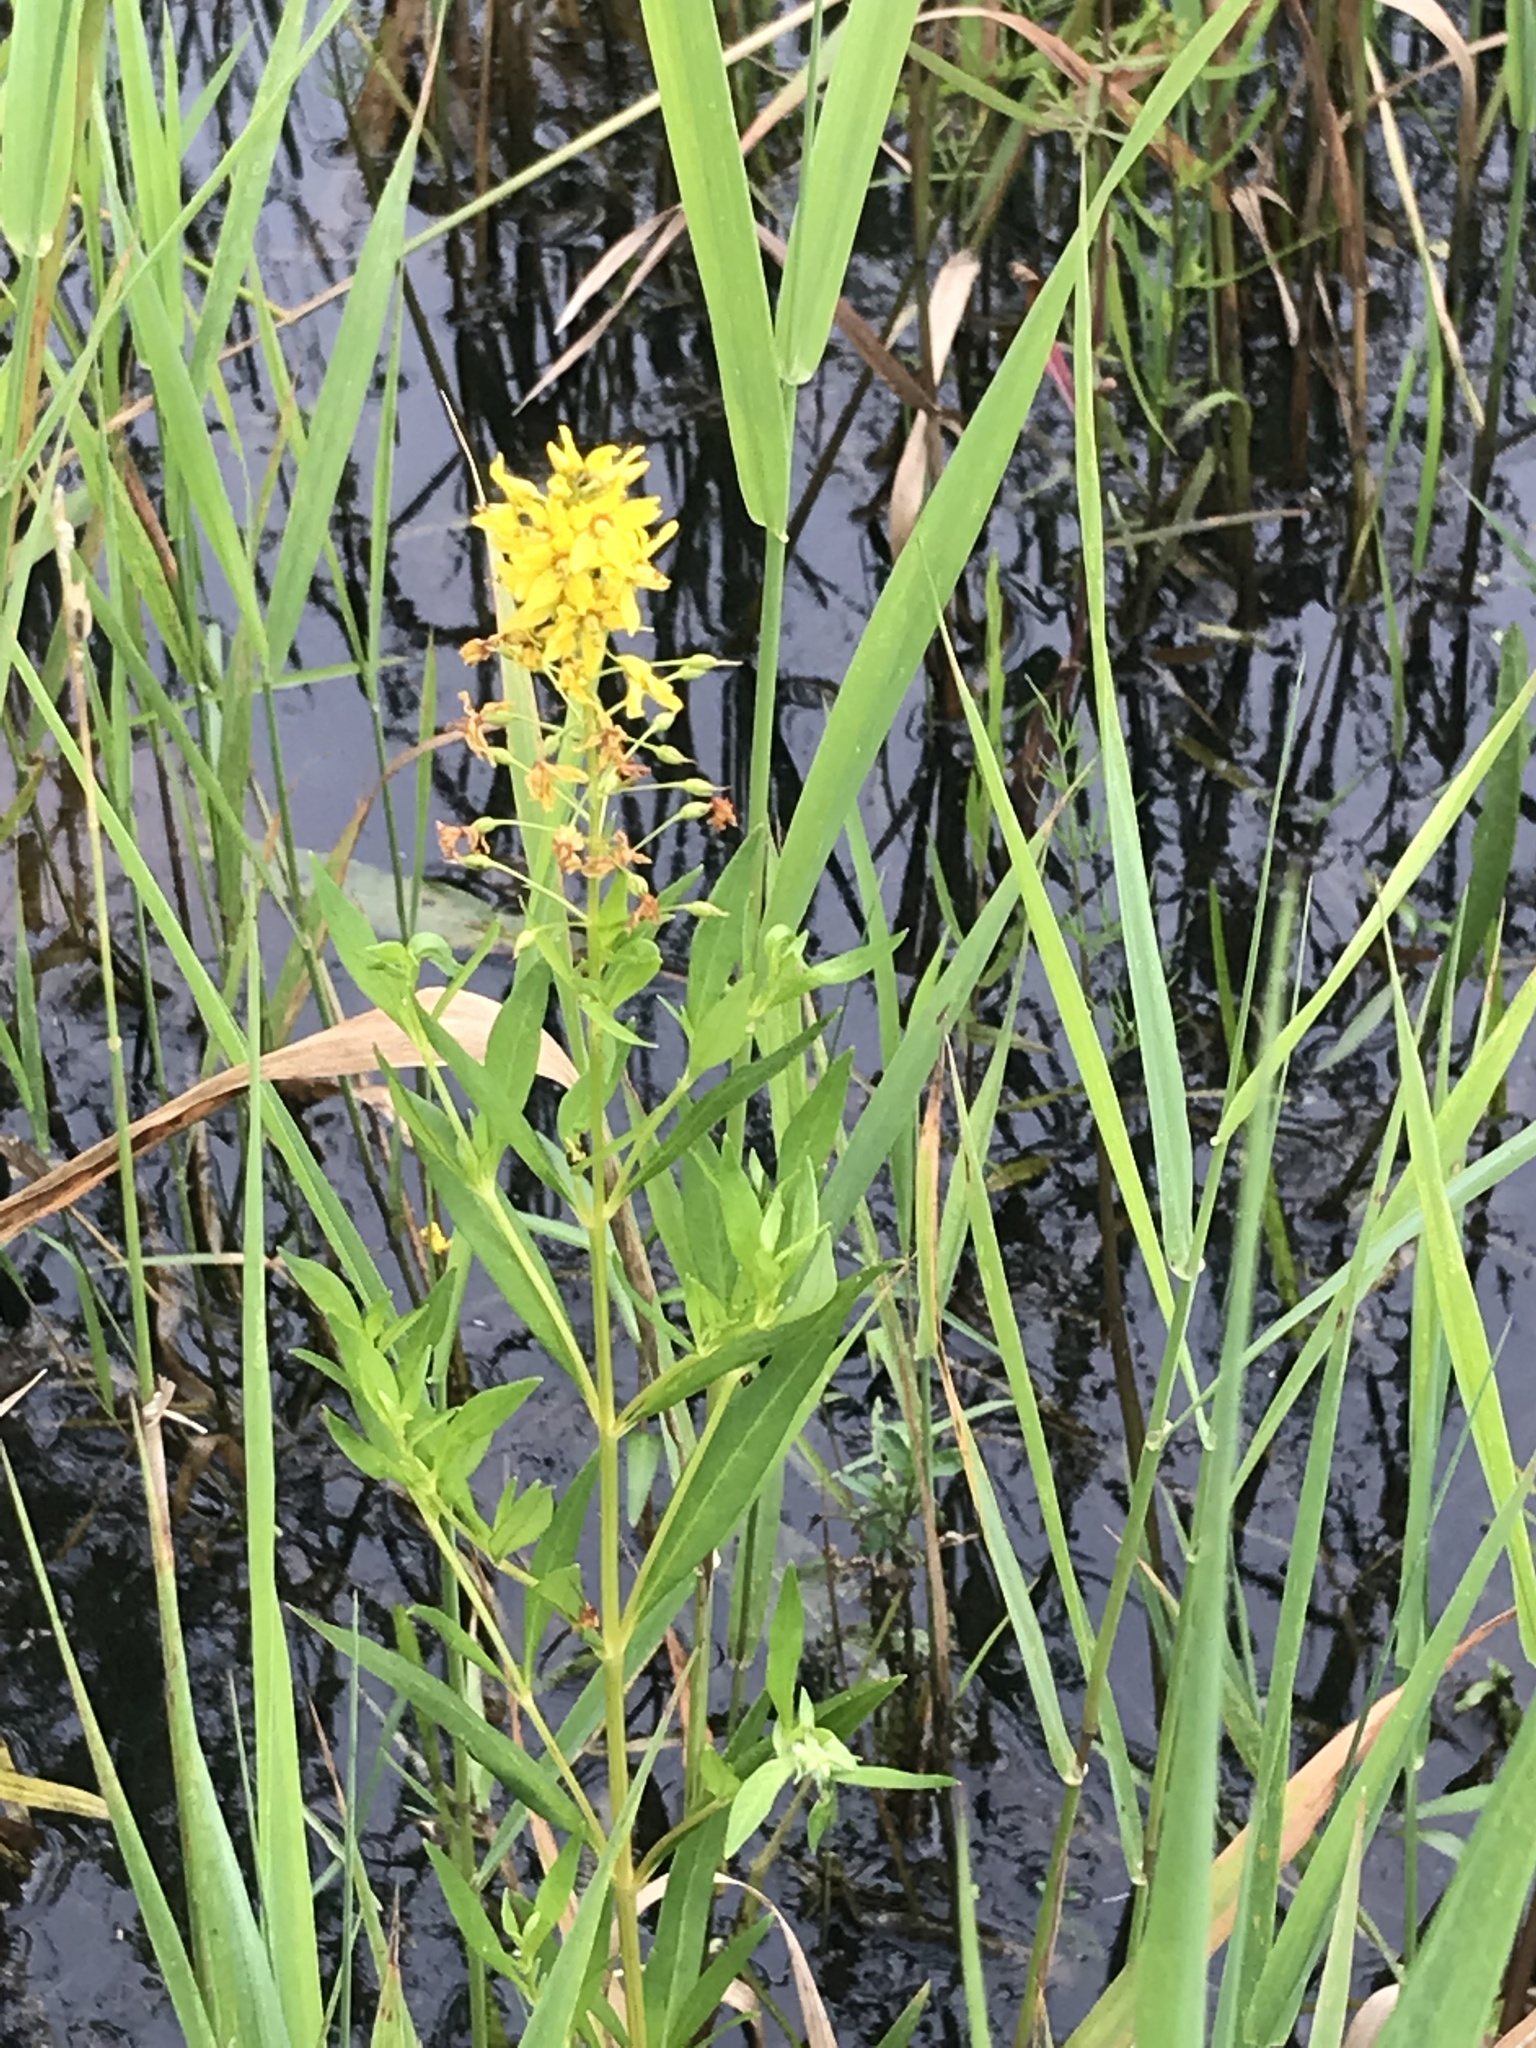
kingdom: Plantae
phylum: Tracheophyta
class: Magnoliopsida
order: Ericales
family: Primulaceae
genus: Lysimachia
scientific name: Lysimachia terrestris
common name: Lake loosestrife
